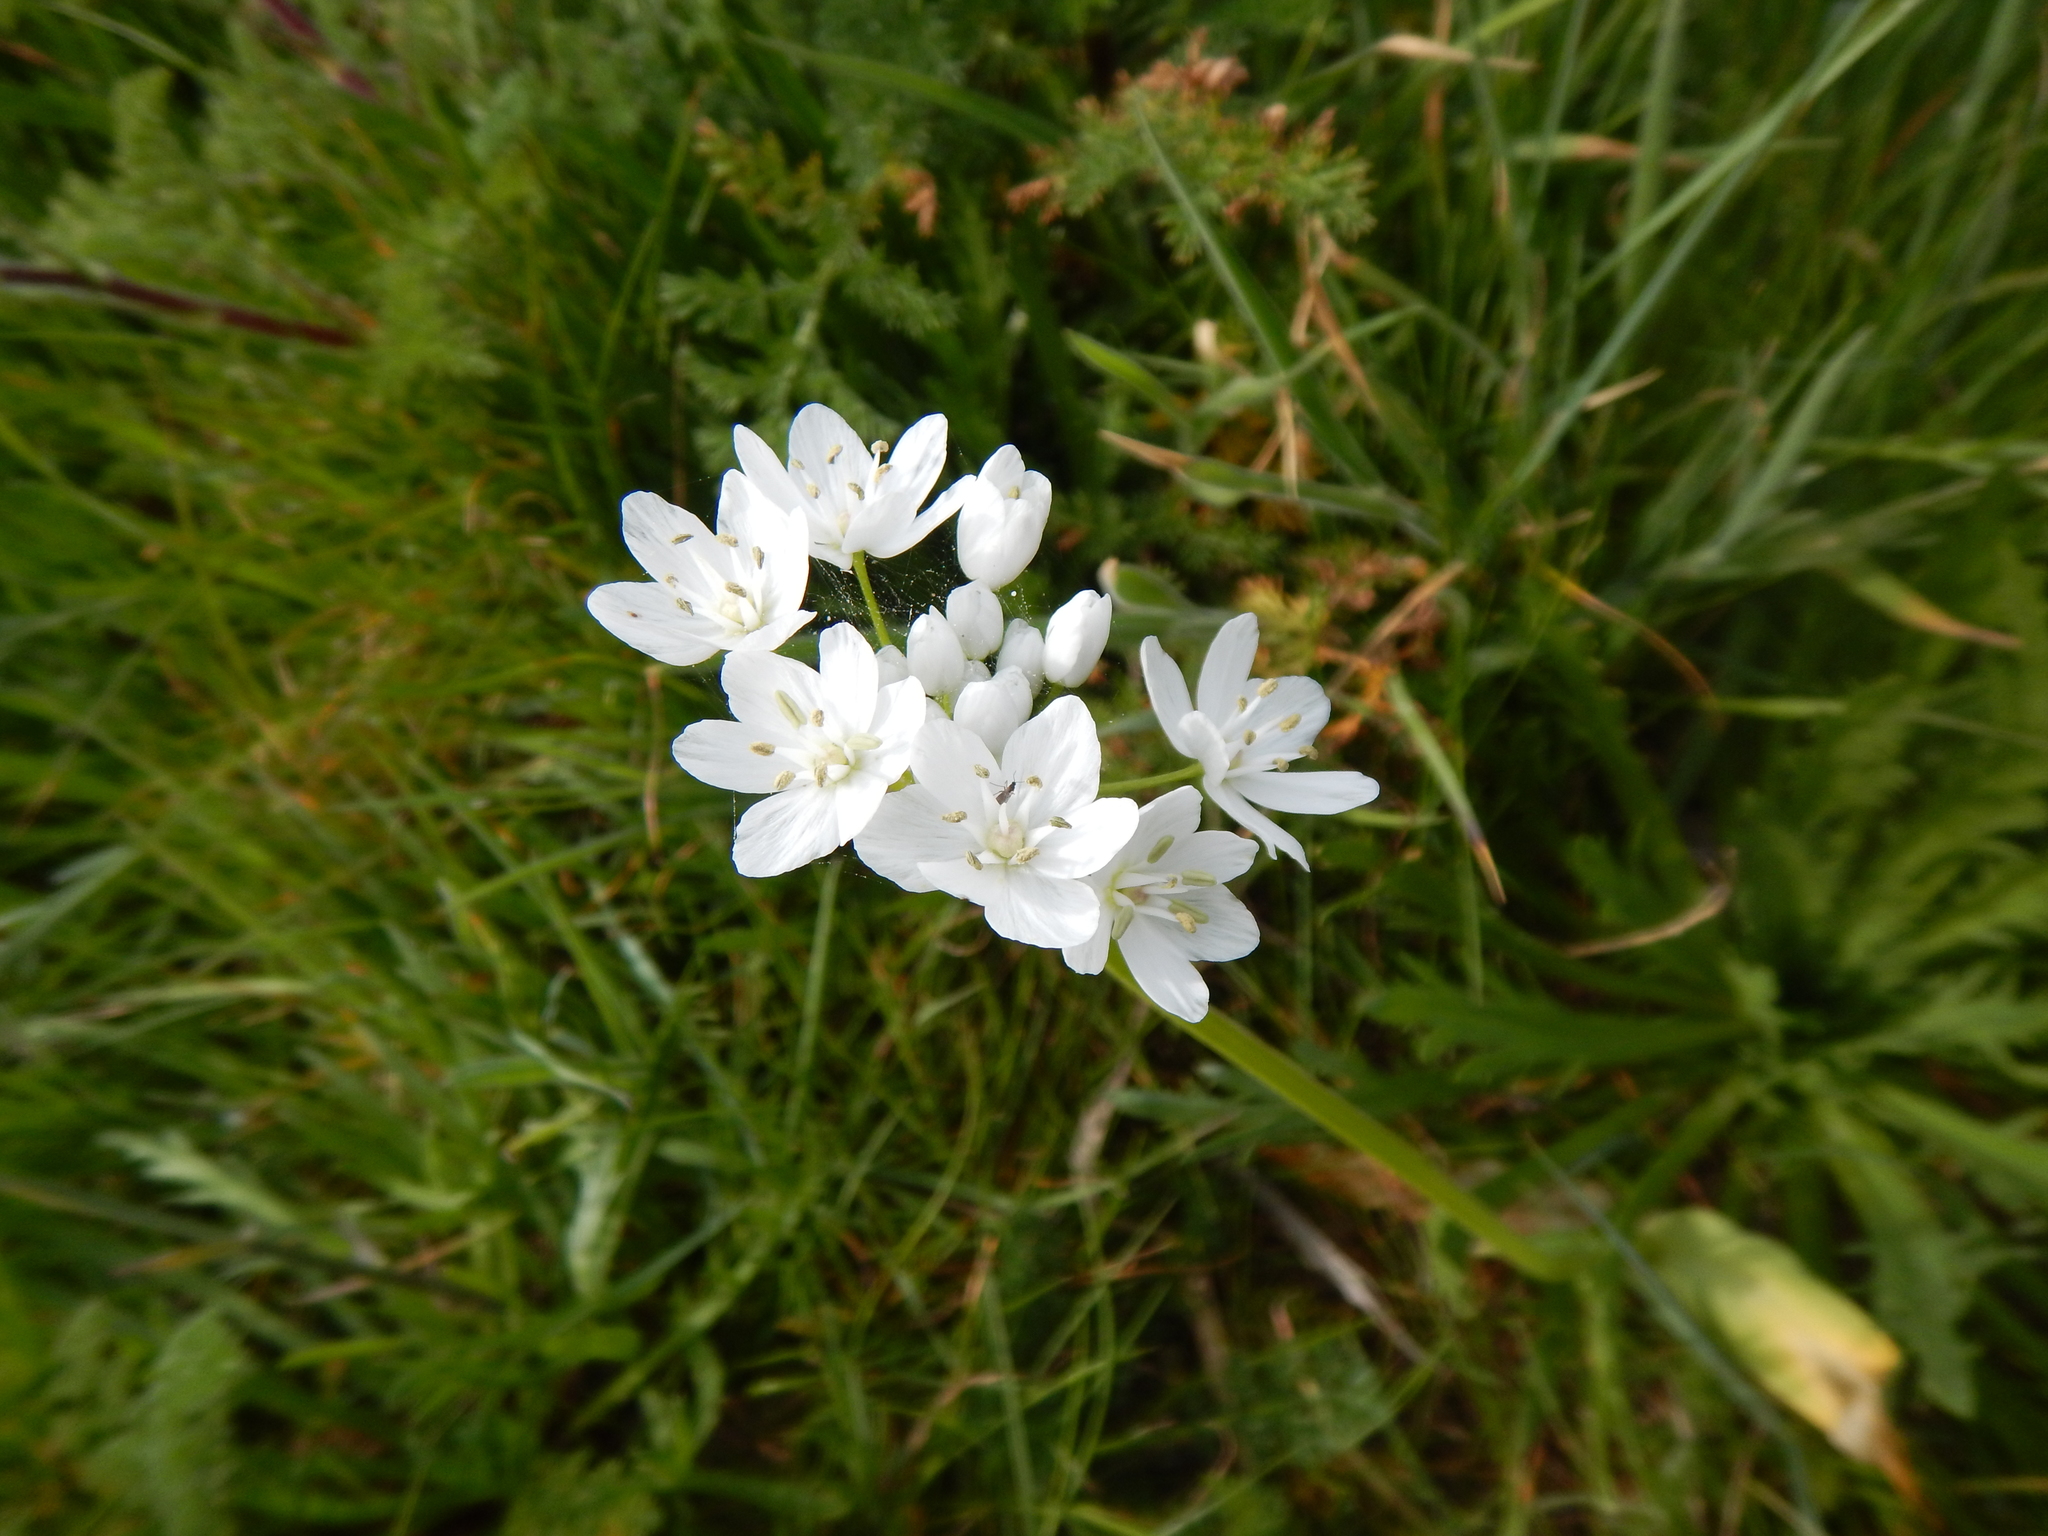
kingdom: Plantae
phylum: Tracheophyta
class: Liliopsida
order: Asparagales
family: Amaryllidaceae
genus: Allium
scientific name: Allium neapolitanum
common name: Neapolitan garlic
